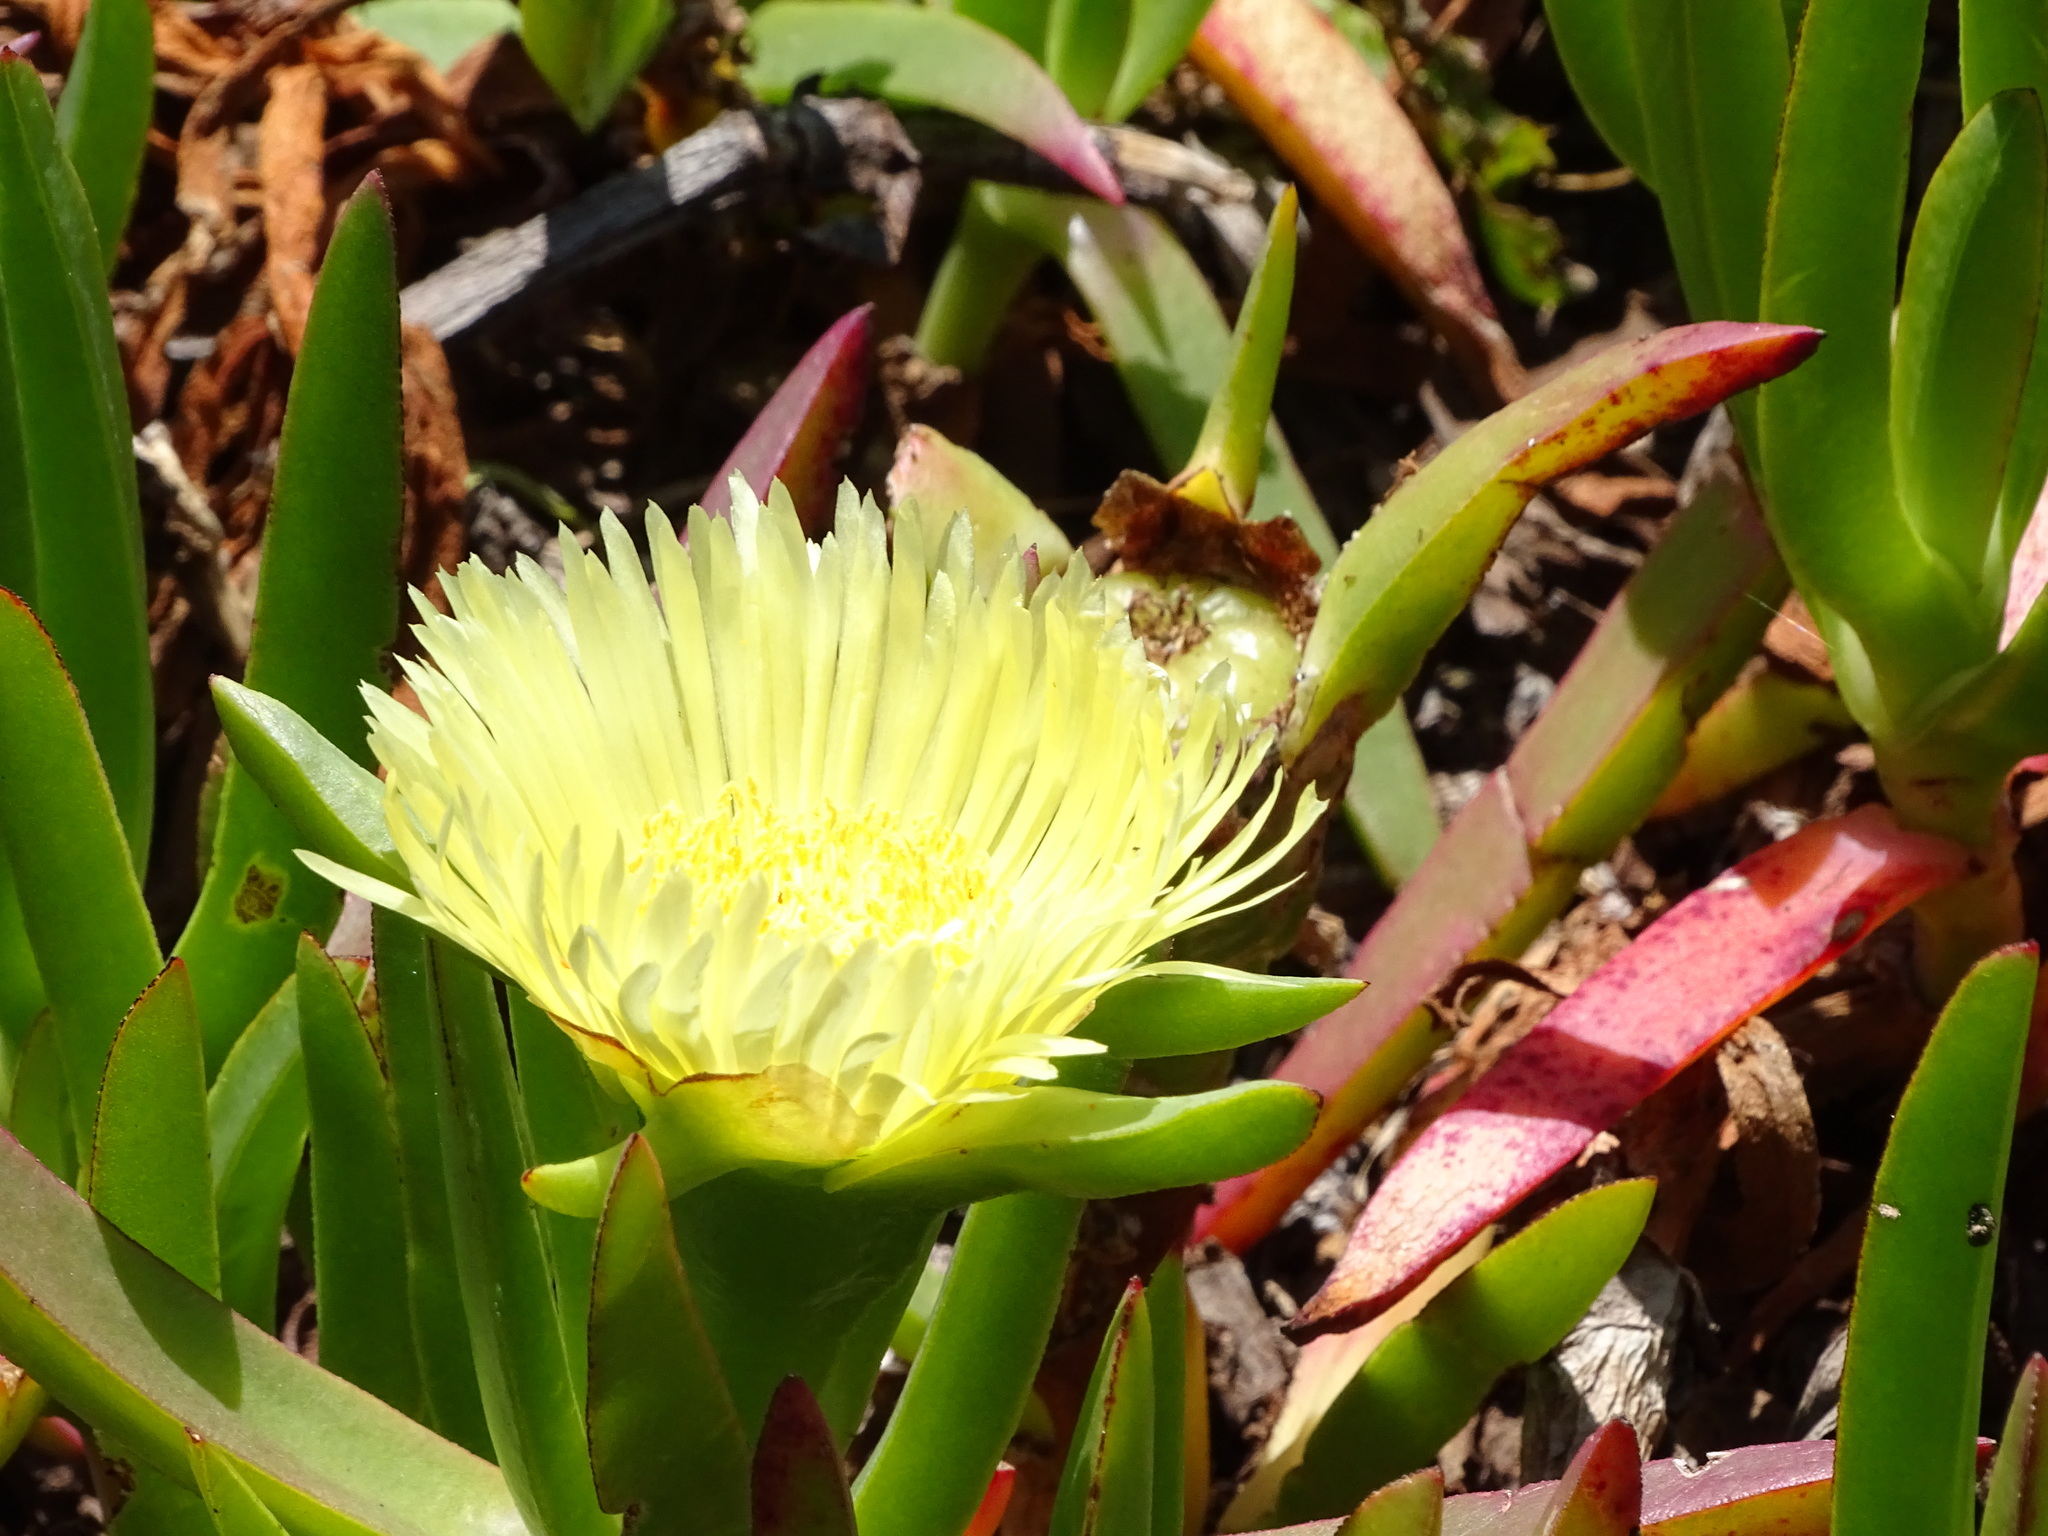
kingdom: Plantae
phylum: Tracheophyta
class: Magnoliopsida
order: Caryophyllales
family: Aizoaceae
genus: Carpobrotus
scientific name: Carpobrotus edulis
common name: Hottentot-fig
